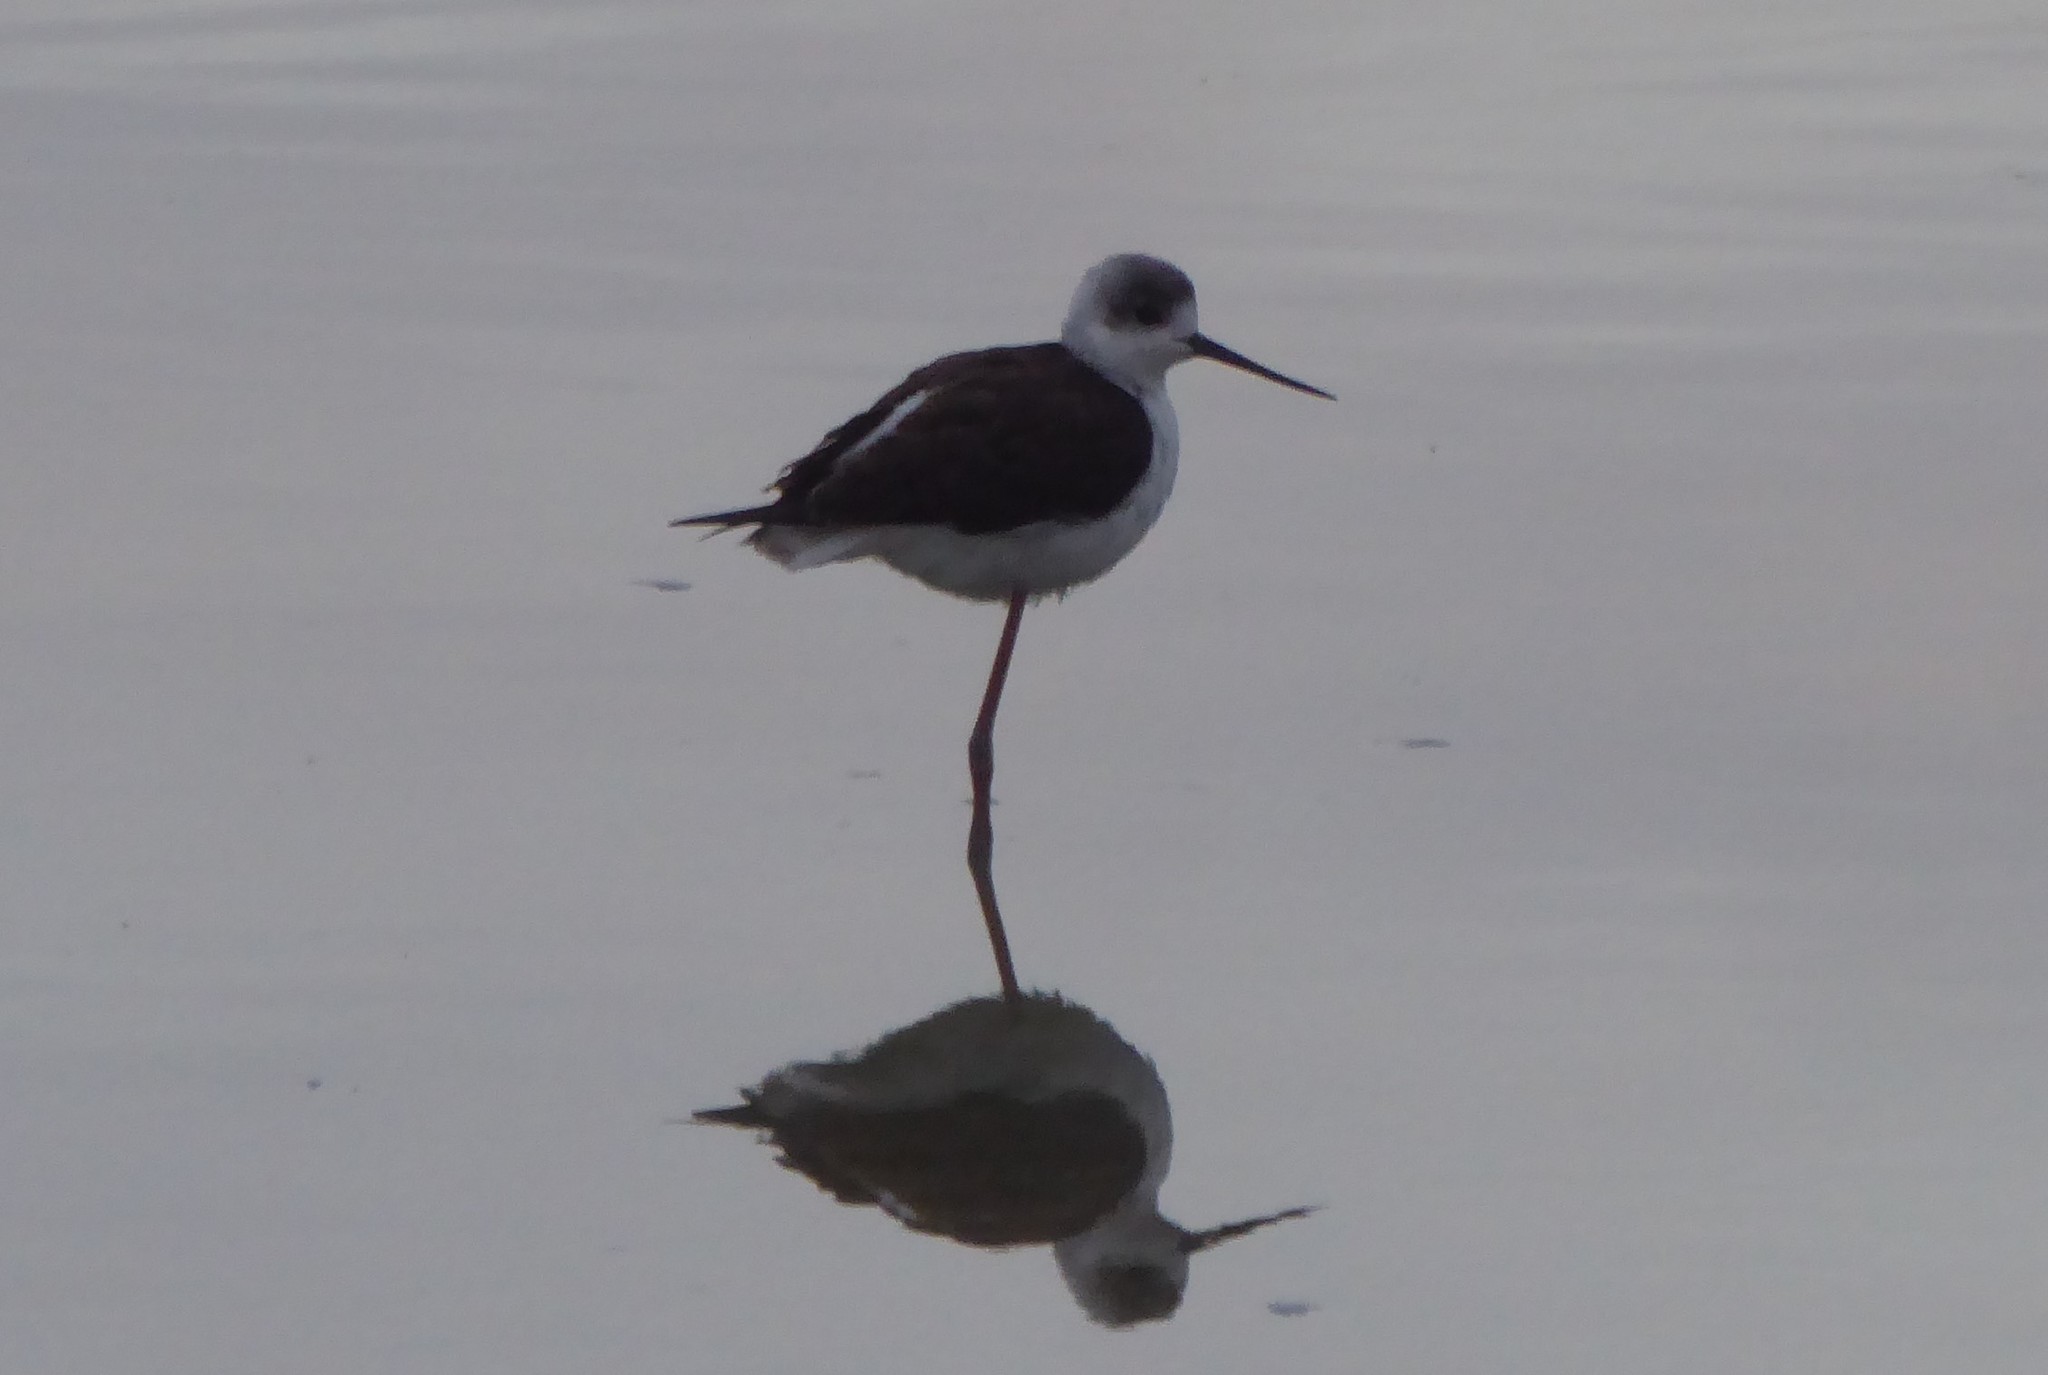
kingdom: Animalia
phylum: Chordata
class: Aves
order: Charadriiformes
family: Recurvirostridae
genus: Himantopus
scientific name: Himantopus leucocephalus
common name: White-headed stilt
